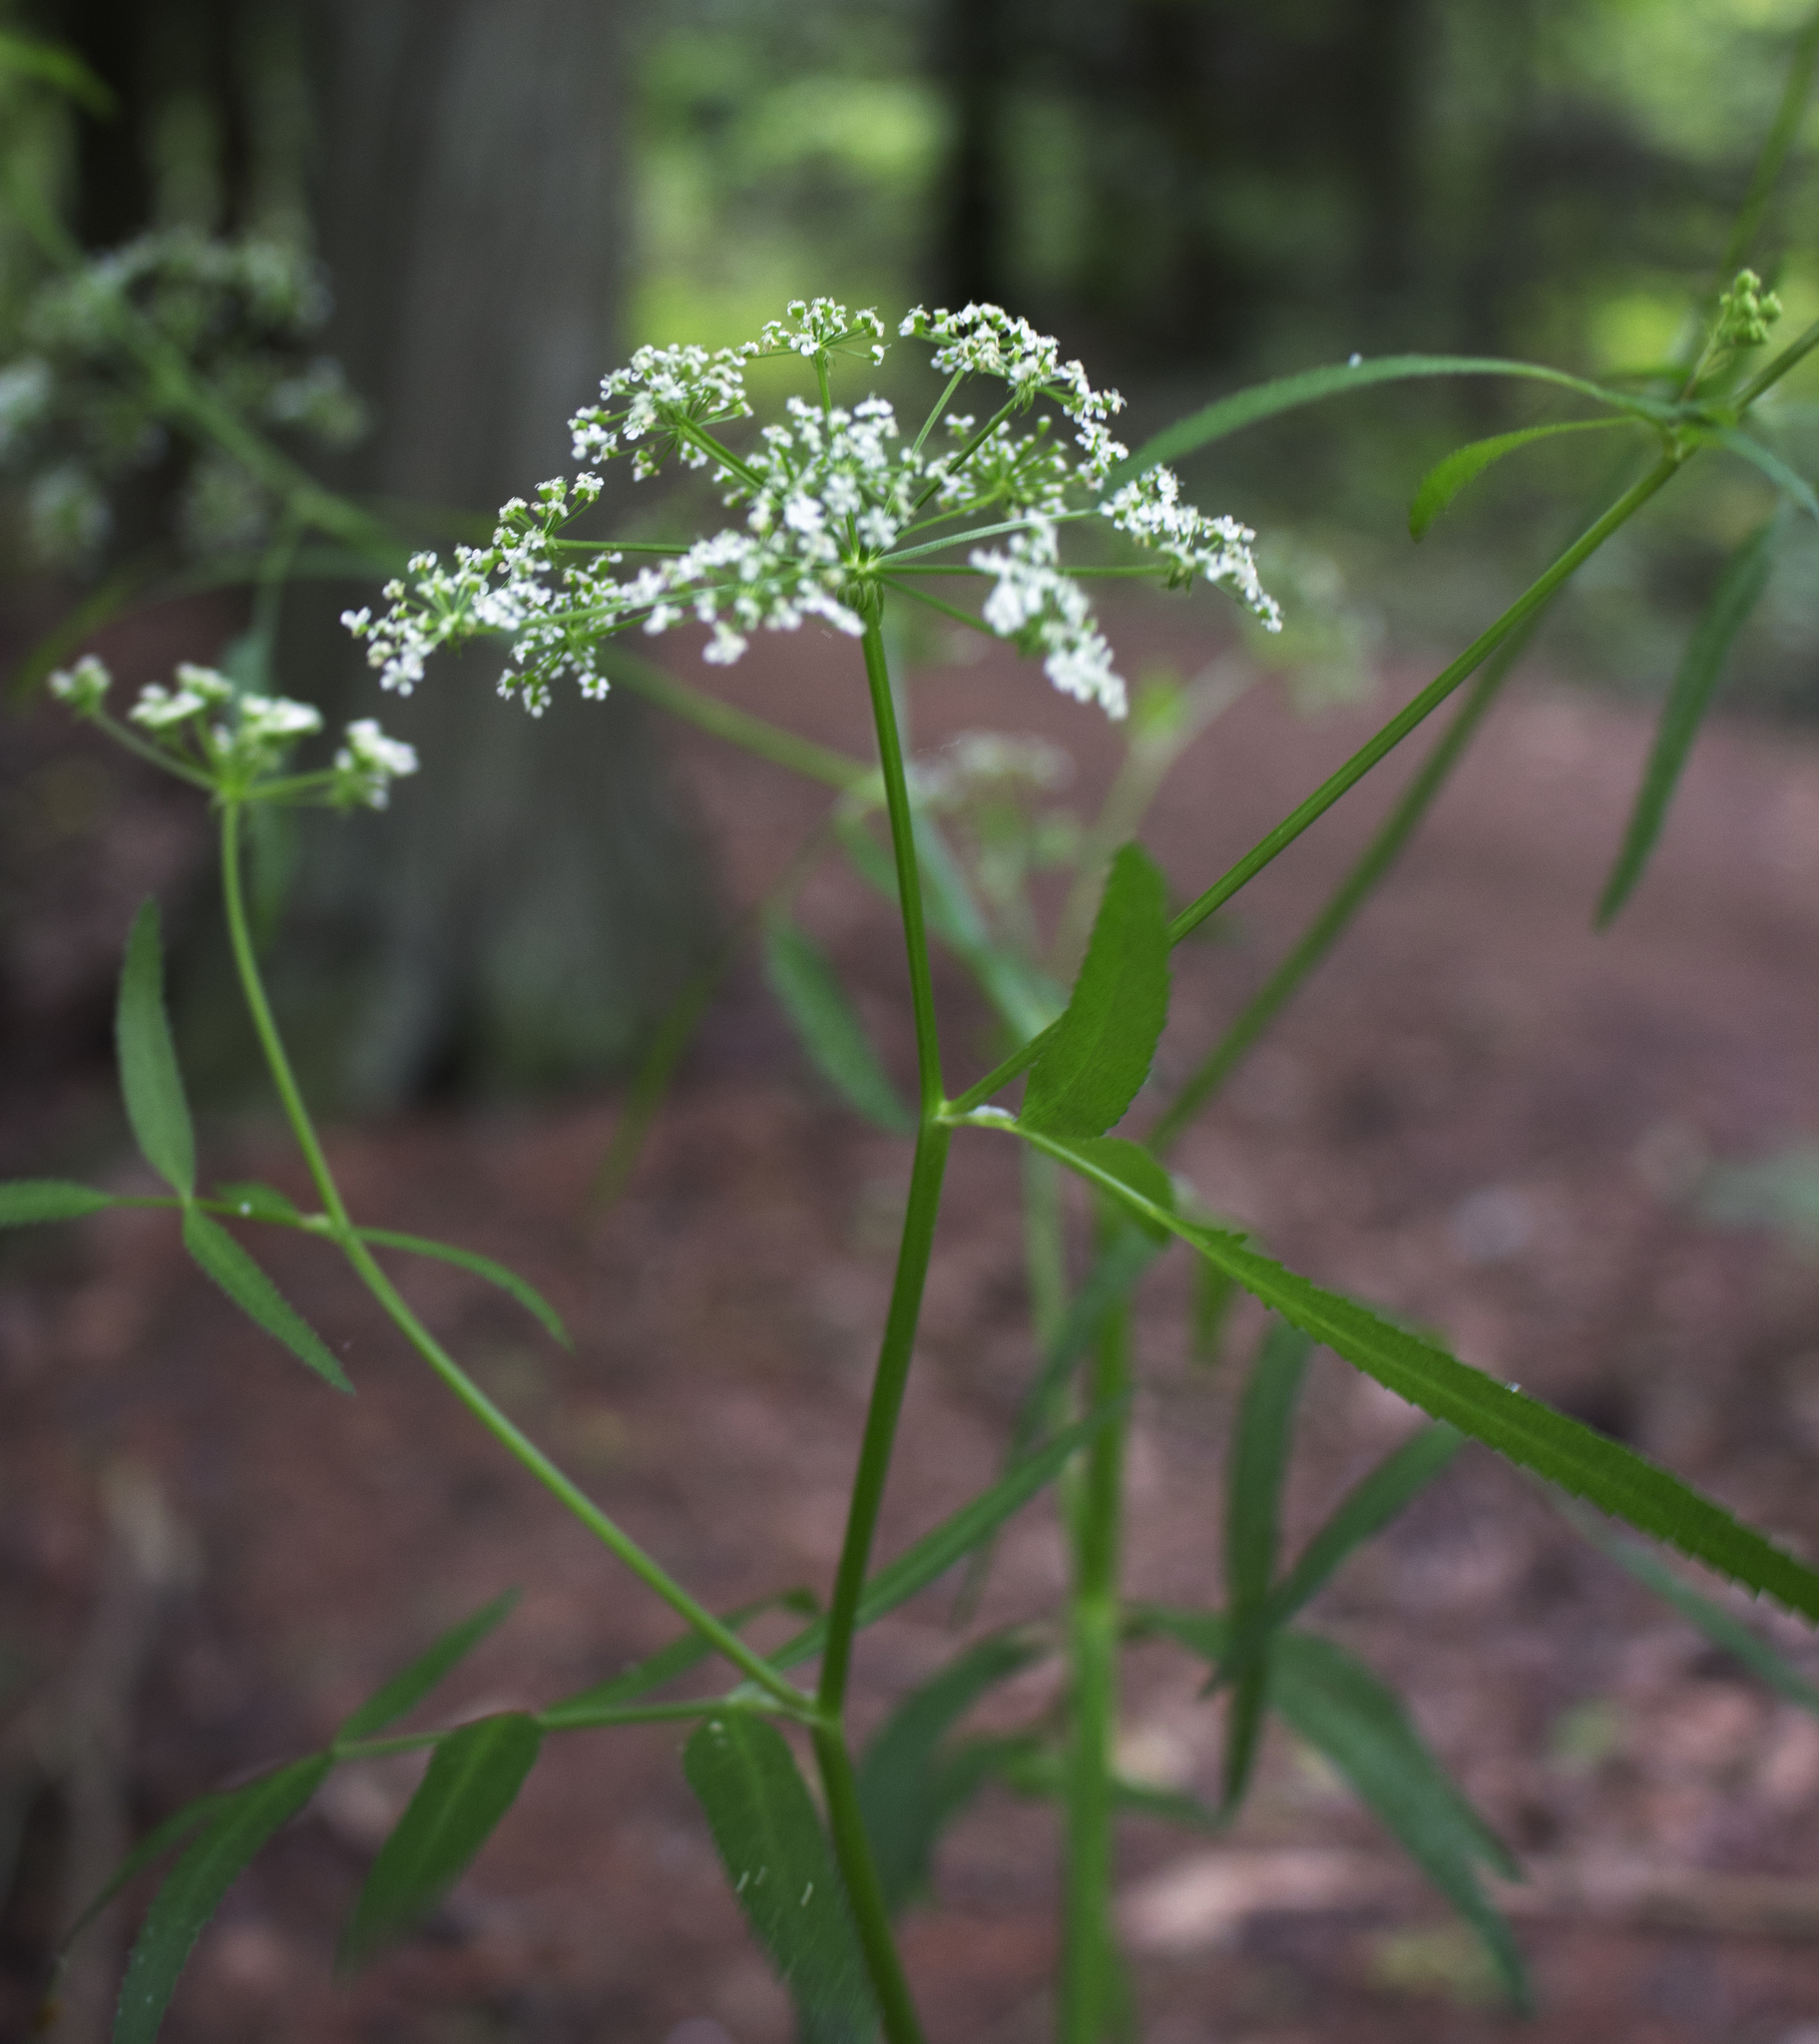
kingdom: Plantae
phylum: Tracheophyta
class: Magnoliopsida
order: Apiales
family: Apiaceae
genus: Sium
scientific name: Sium suave
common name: Hemlock water-parsnip
